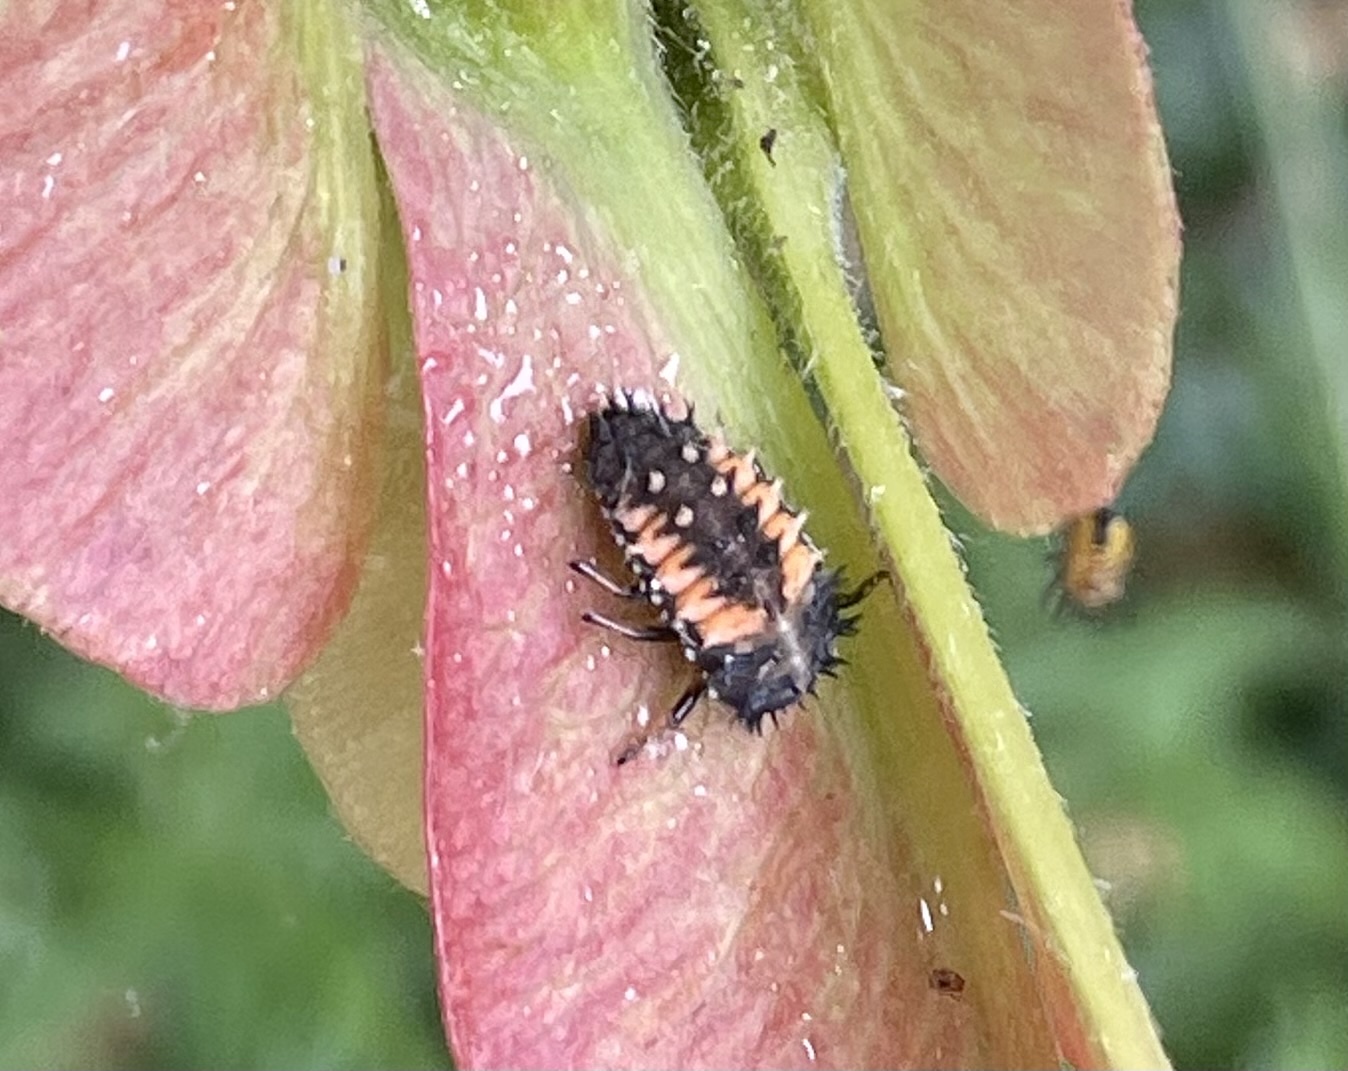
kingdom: Animalia
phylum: Arthropoda
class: Insecta
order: Coleoptera
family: Coccinellidae
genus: Harmonia
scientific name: Harmonia axyridis
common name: Harlequin ladybird
